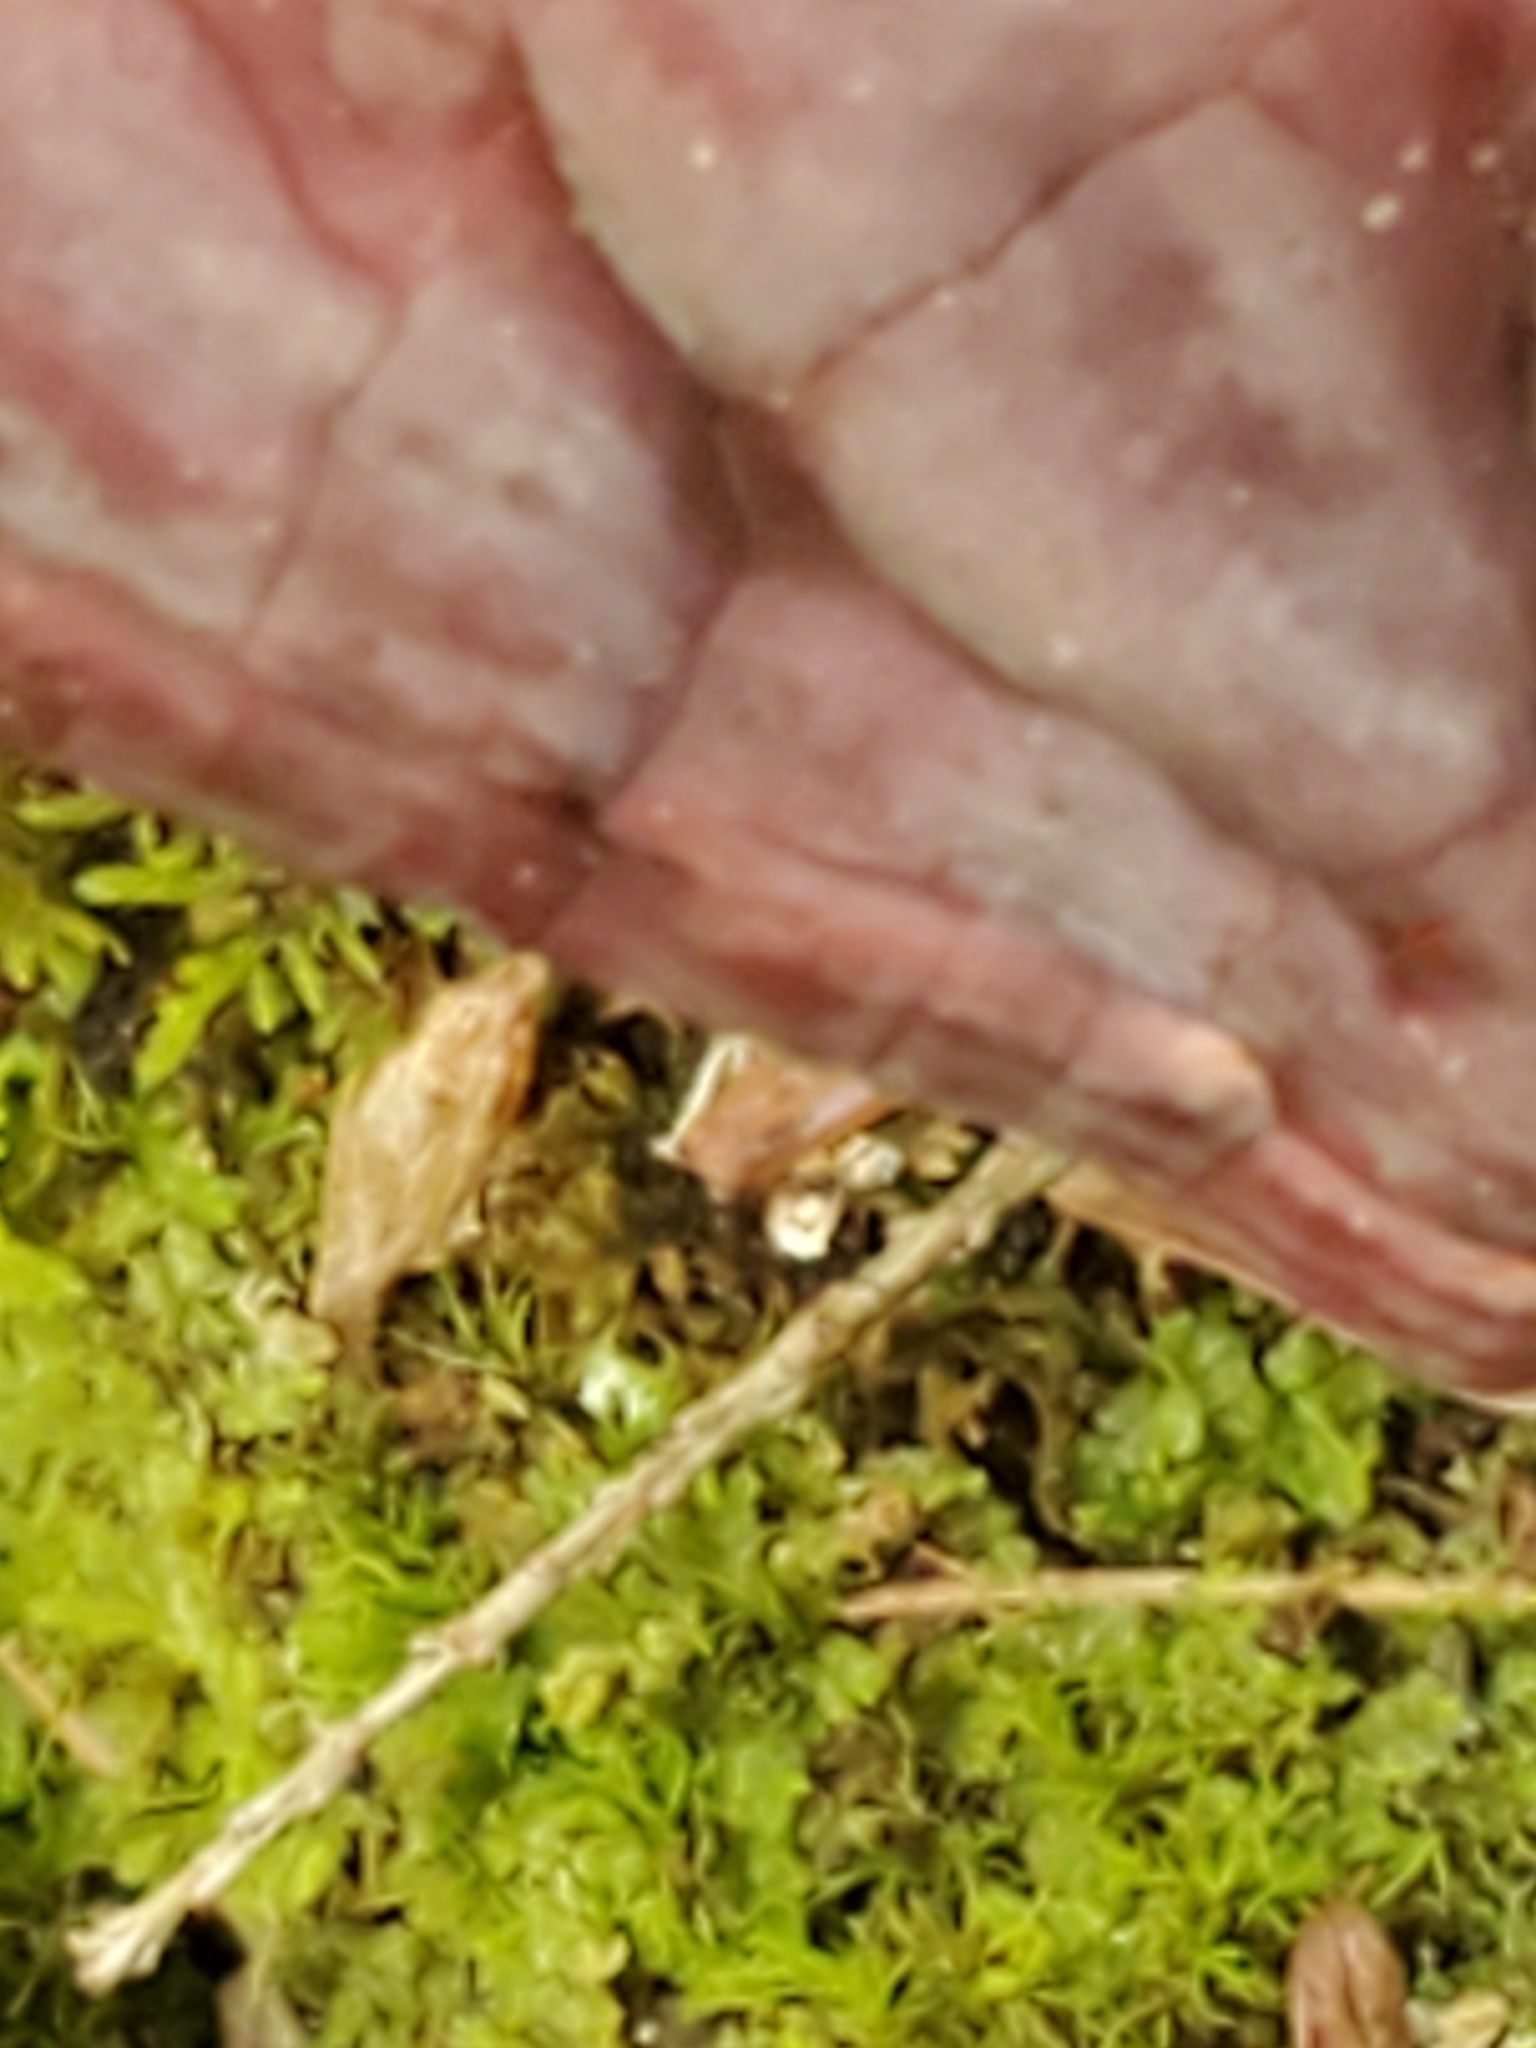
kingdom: Fungi
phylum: Basidiomycota
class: Agaricomycetes
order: Polyporales
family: Polyporaceae
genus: Ganoderma
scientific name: Ganoderma tsugae
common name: Hemlock varnish shelf
